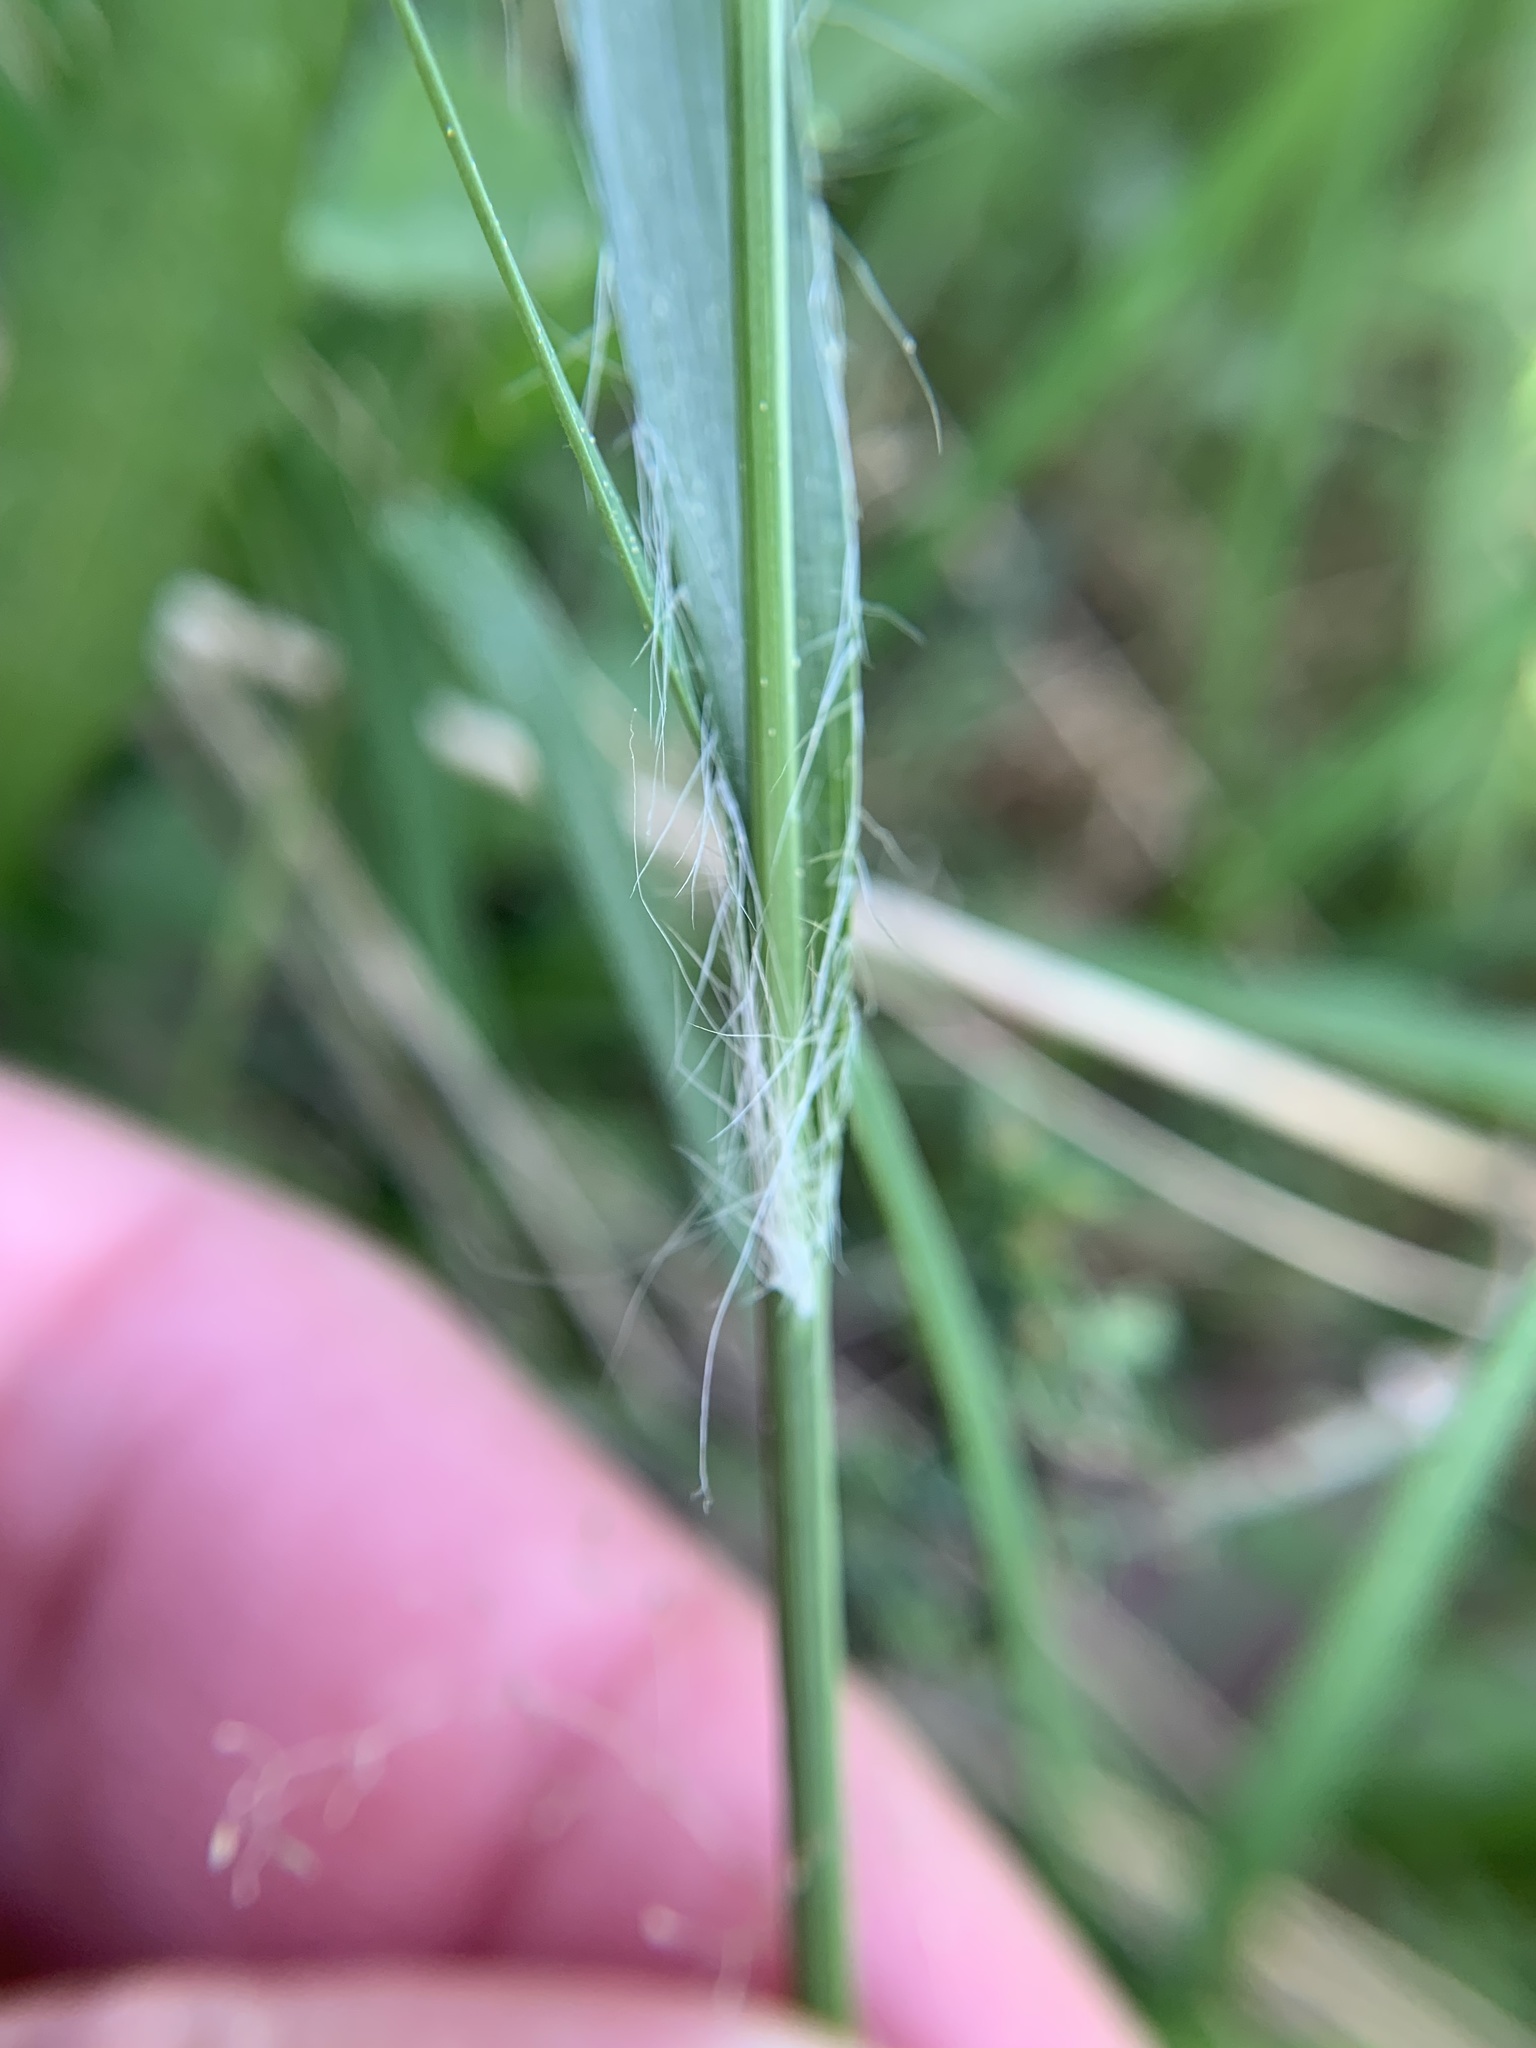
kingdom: Plantae
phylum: Tracheophyta
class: Liliopsida
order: Poales
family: Juncaceae
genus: Luzula
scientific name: Luzula multiflora
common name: Heath wood-rush
